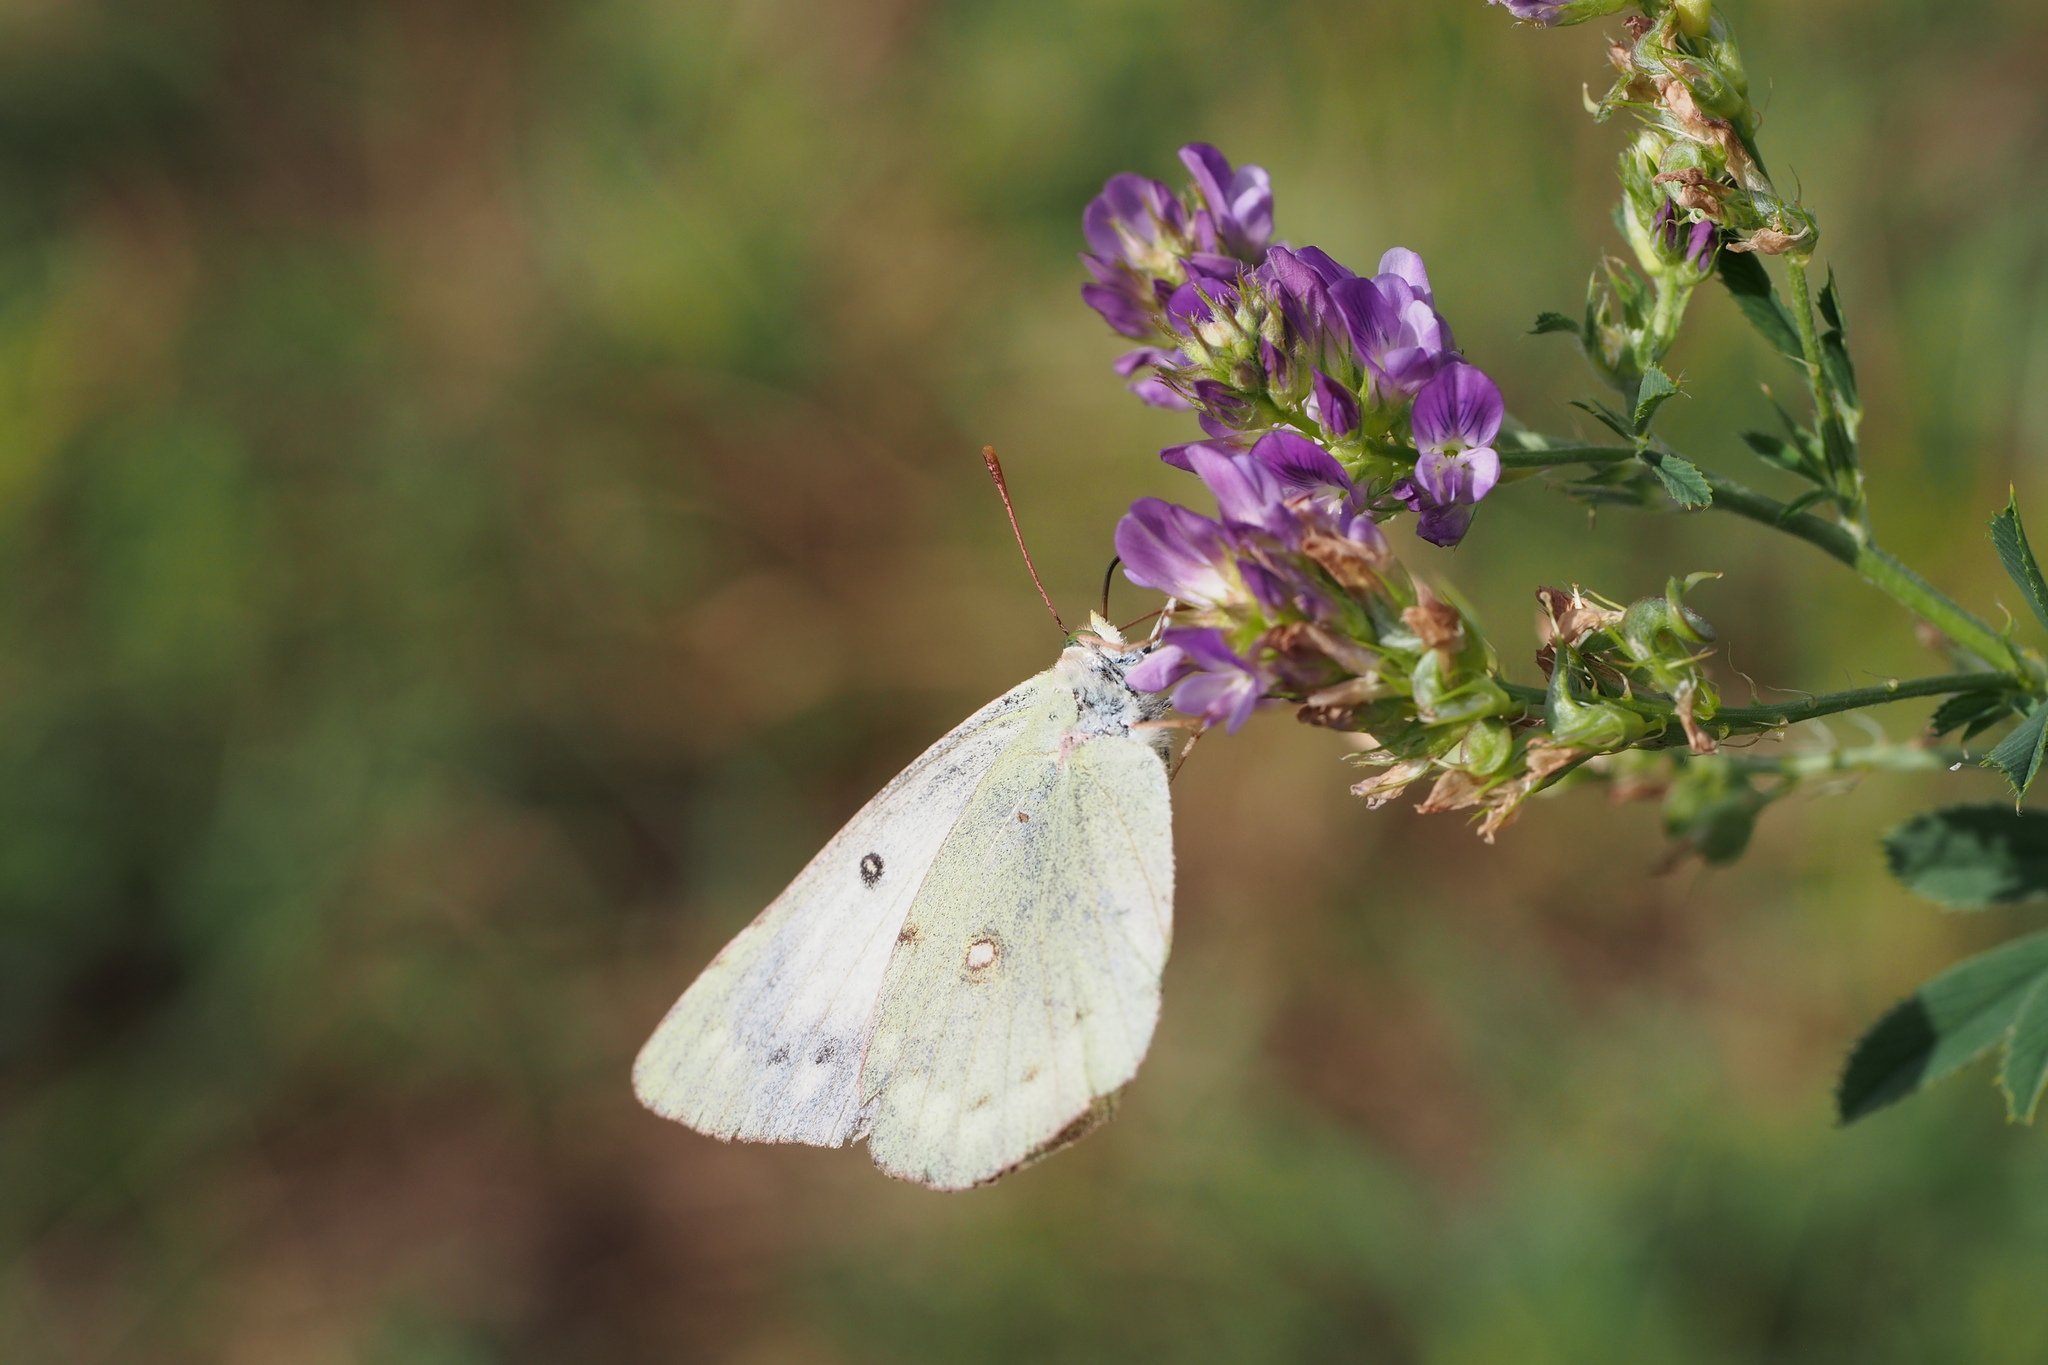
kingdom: Animalia
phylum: Arthropoda
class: Insecta
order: Lepidoptera
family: Pieridae
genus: Colias
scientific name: Colias poliographus
